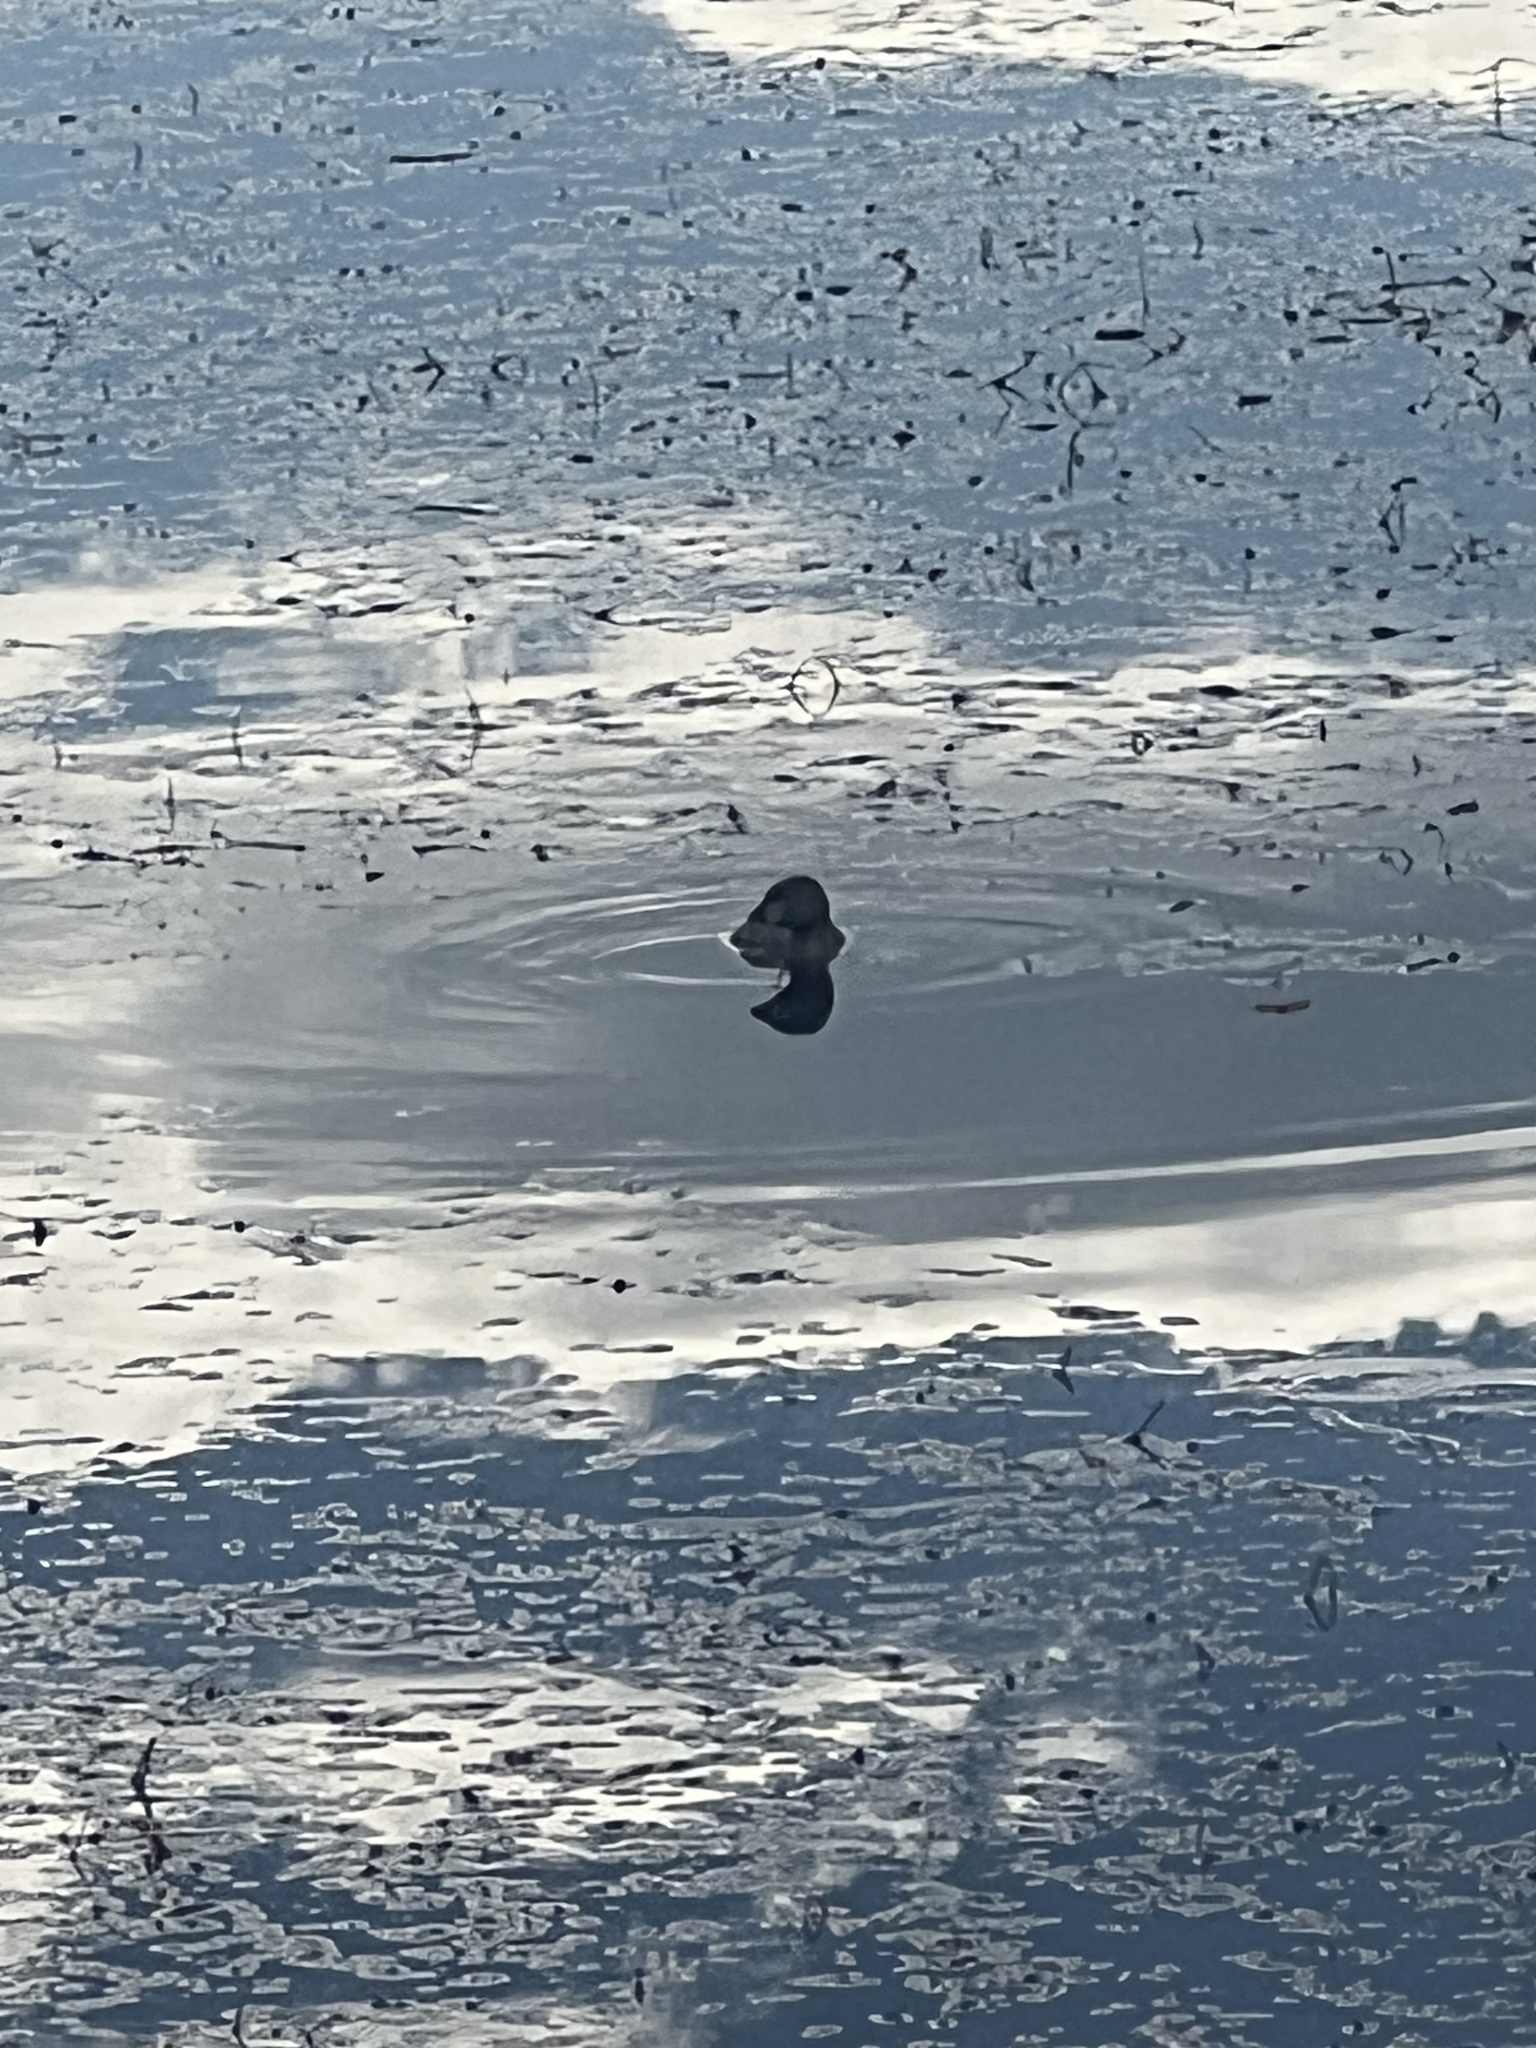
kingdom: Animalia
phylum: Chordata
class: Aves
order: Podicipediformes
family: Podicipedidae
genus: Podilymbus
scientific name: Podilymbus podiceps
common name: Pied-billed grebe
